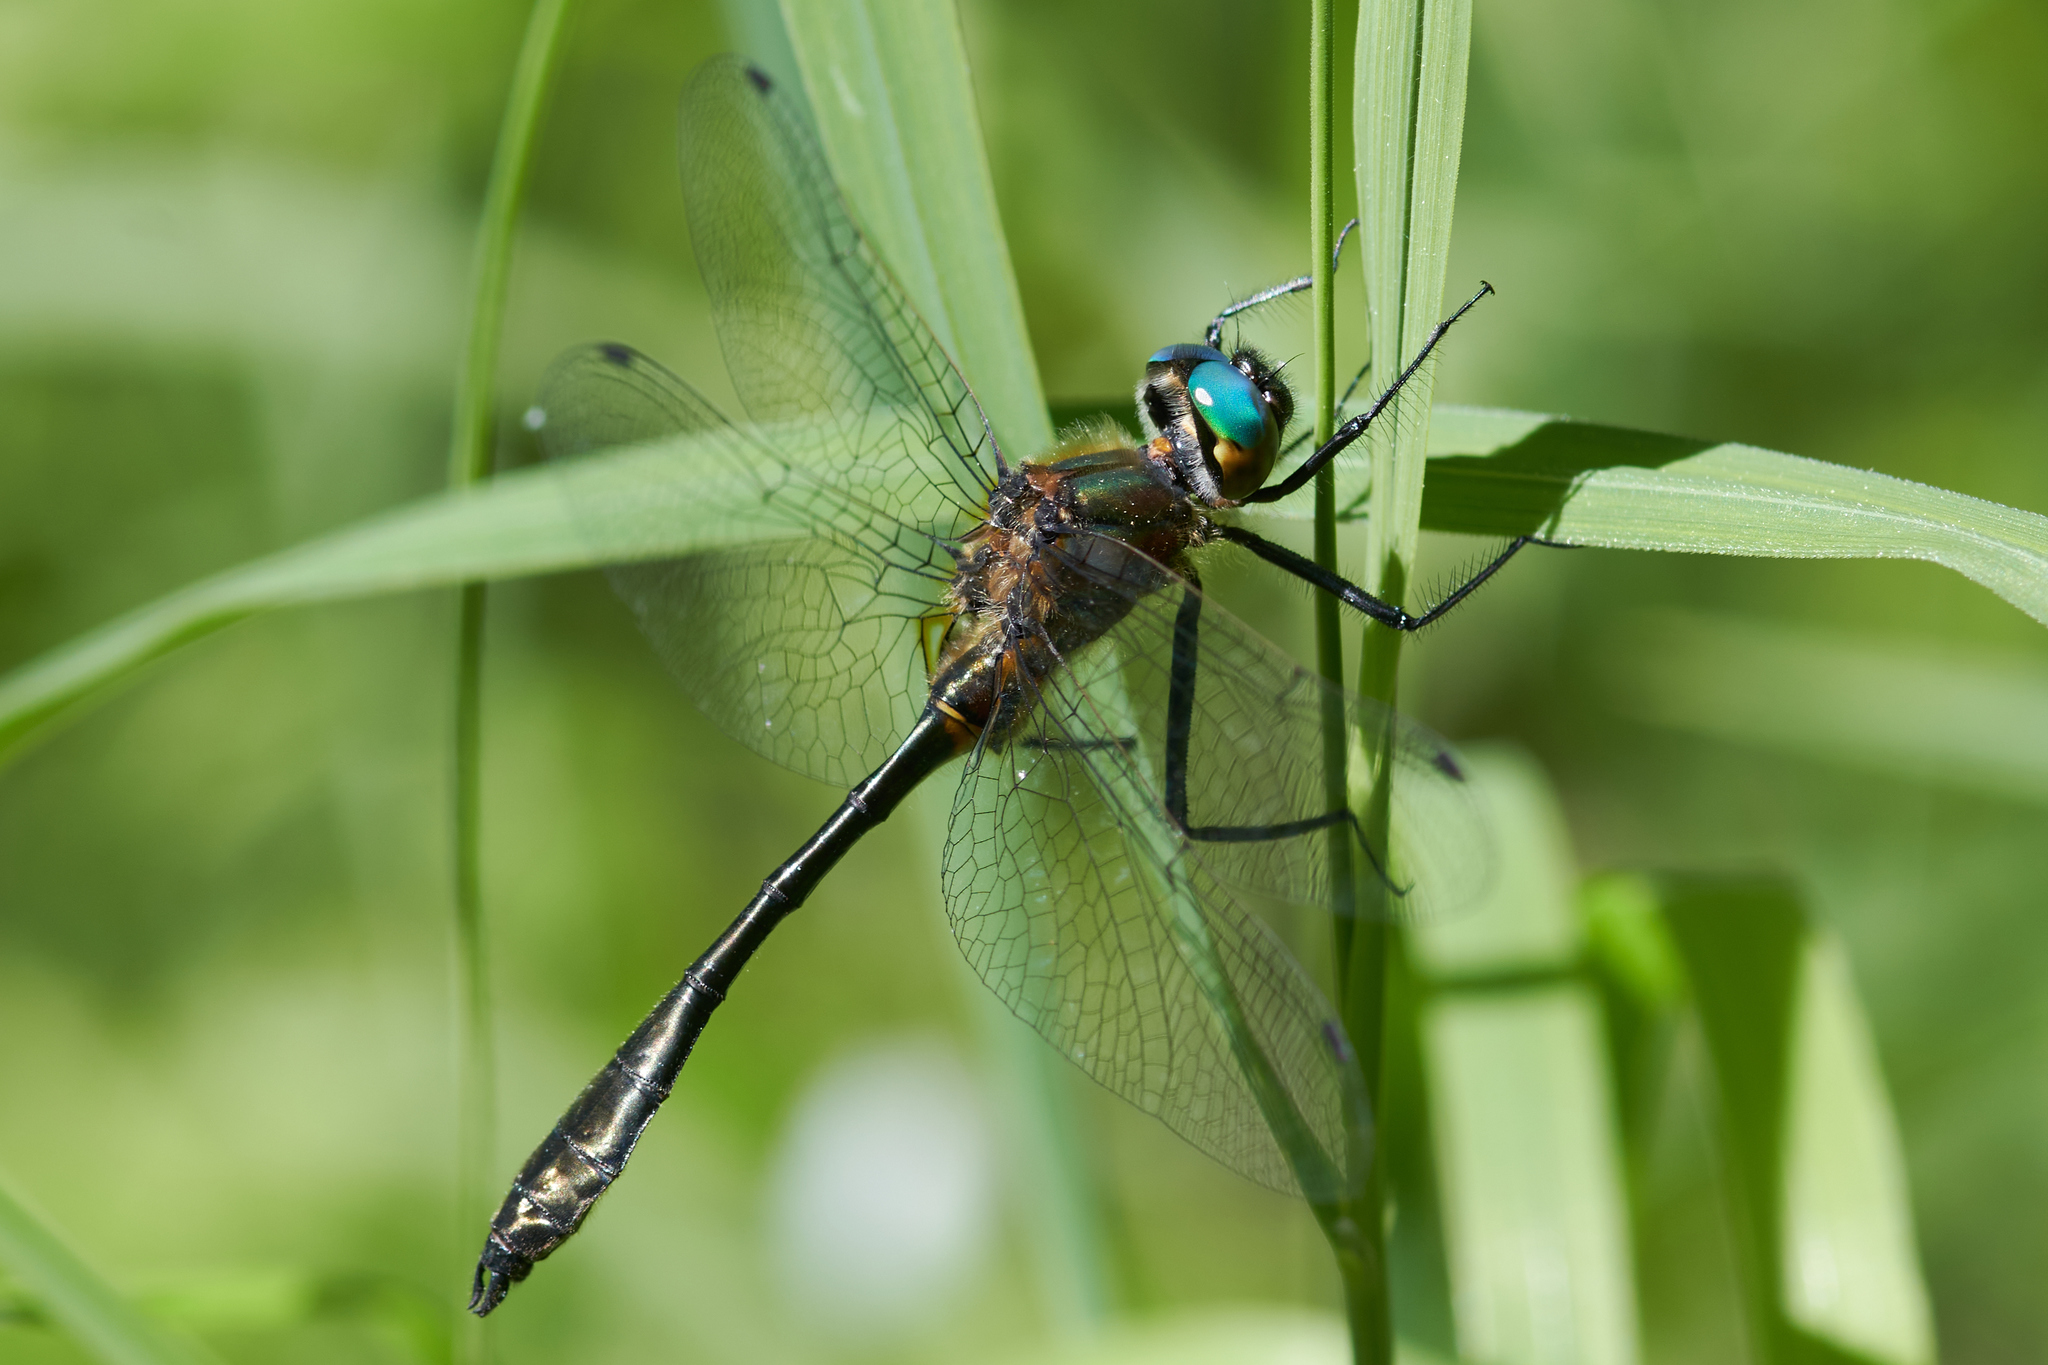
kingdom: Animalia
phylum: Arthropoda
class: Insecta
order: Odonata
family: Corduliidae
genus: Dorocordulia
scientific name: Dorocordulia libera
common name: Racket-tailed emerald
